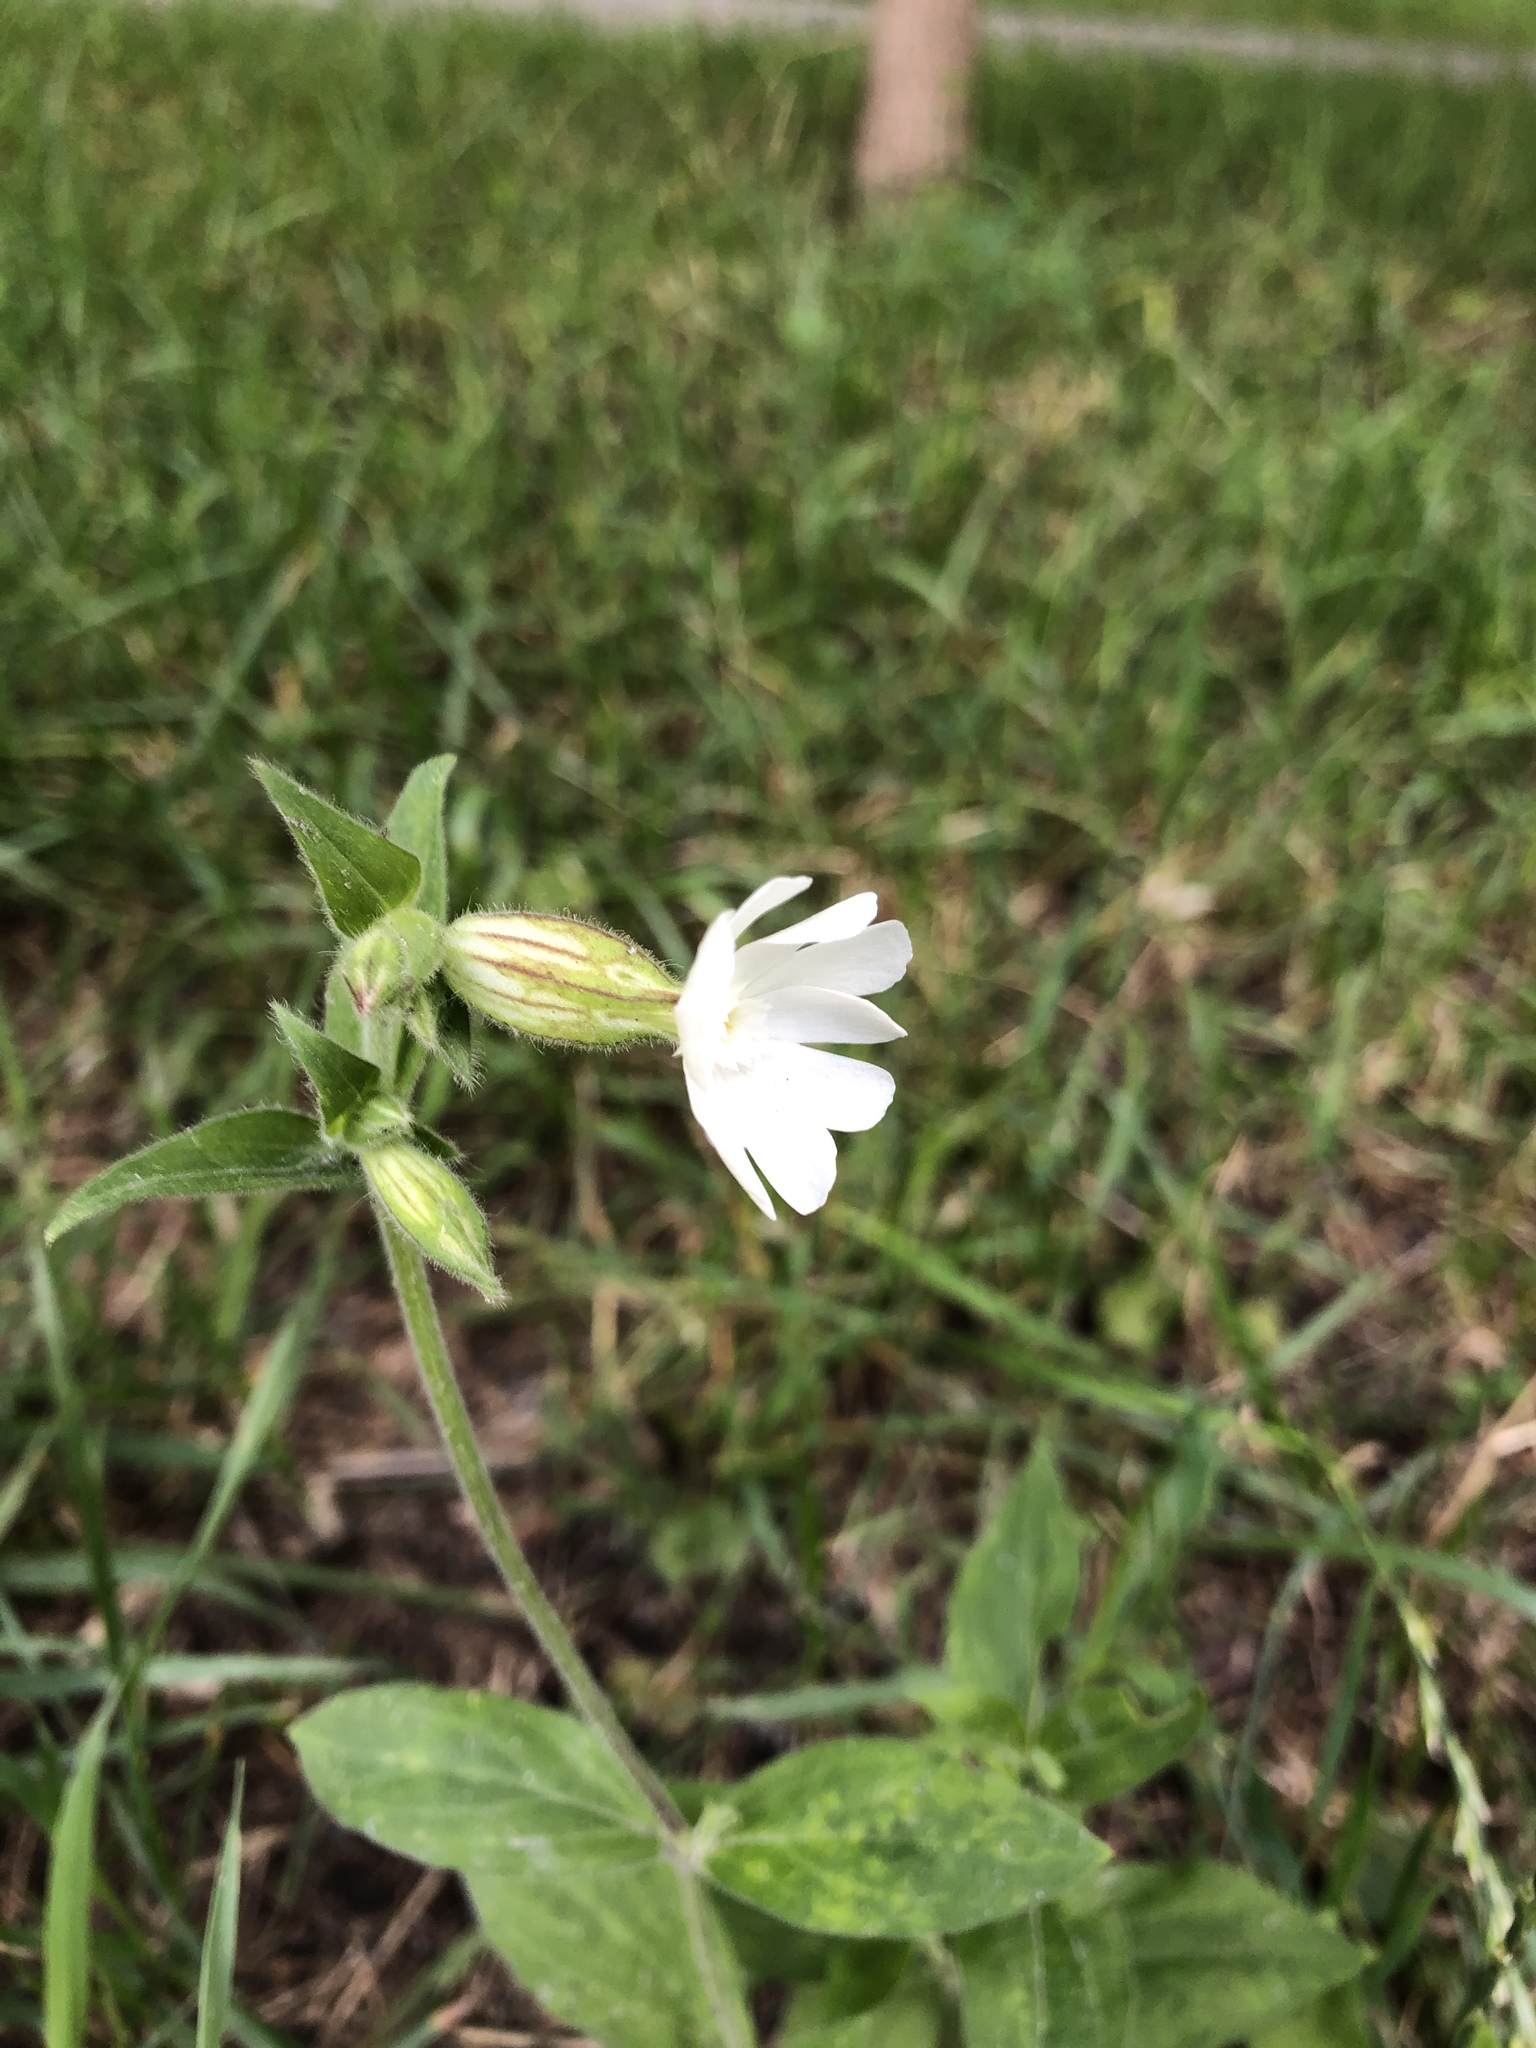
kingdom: Plantae
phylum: Tracheophyta
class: Magnoliopsida
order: Caryophyllales
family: Caryophyllaceae
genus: Silene
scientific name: Silene latifolia
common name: White campion
